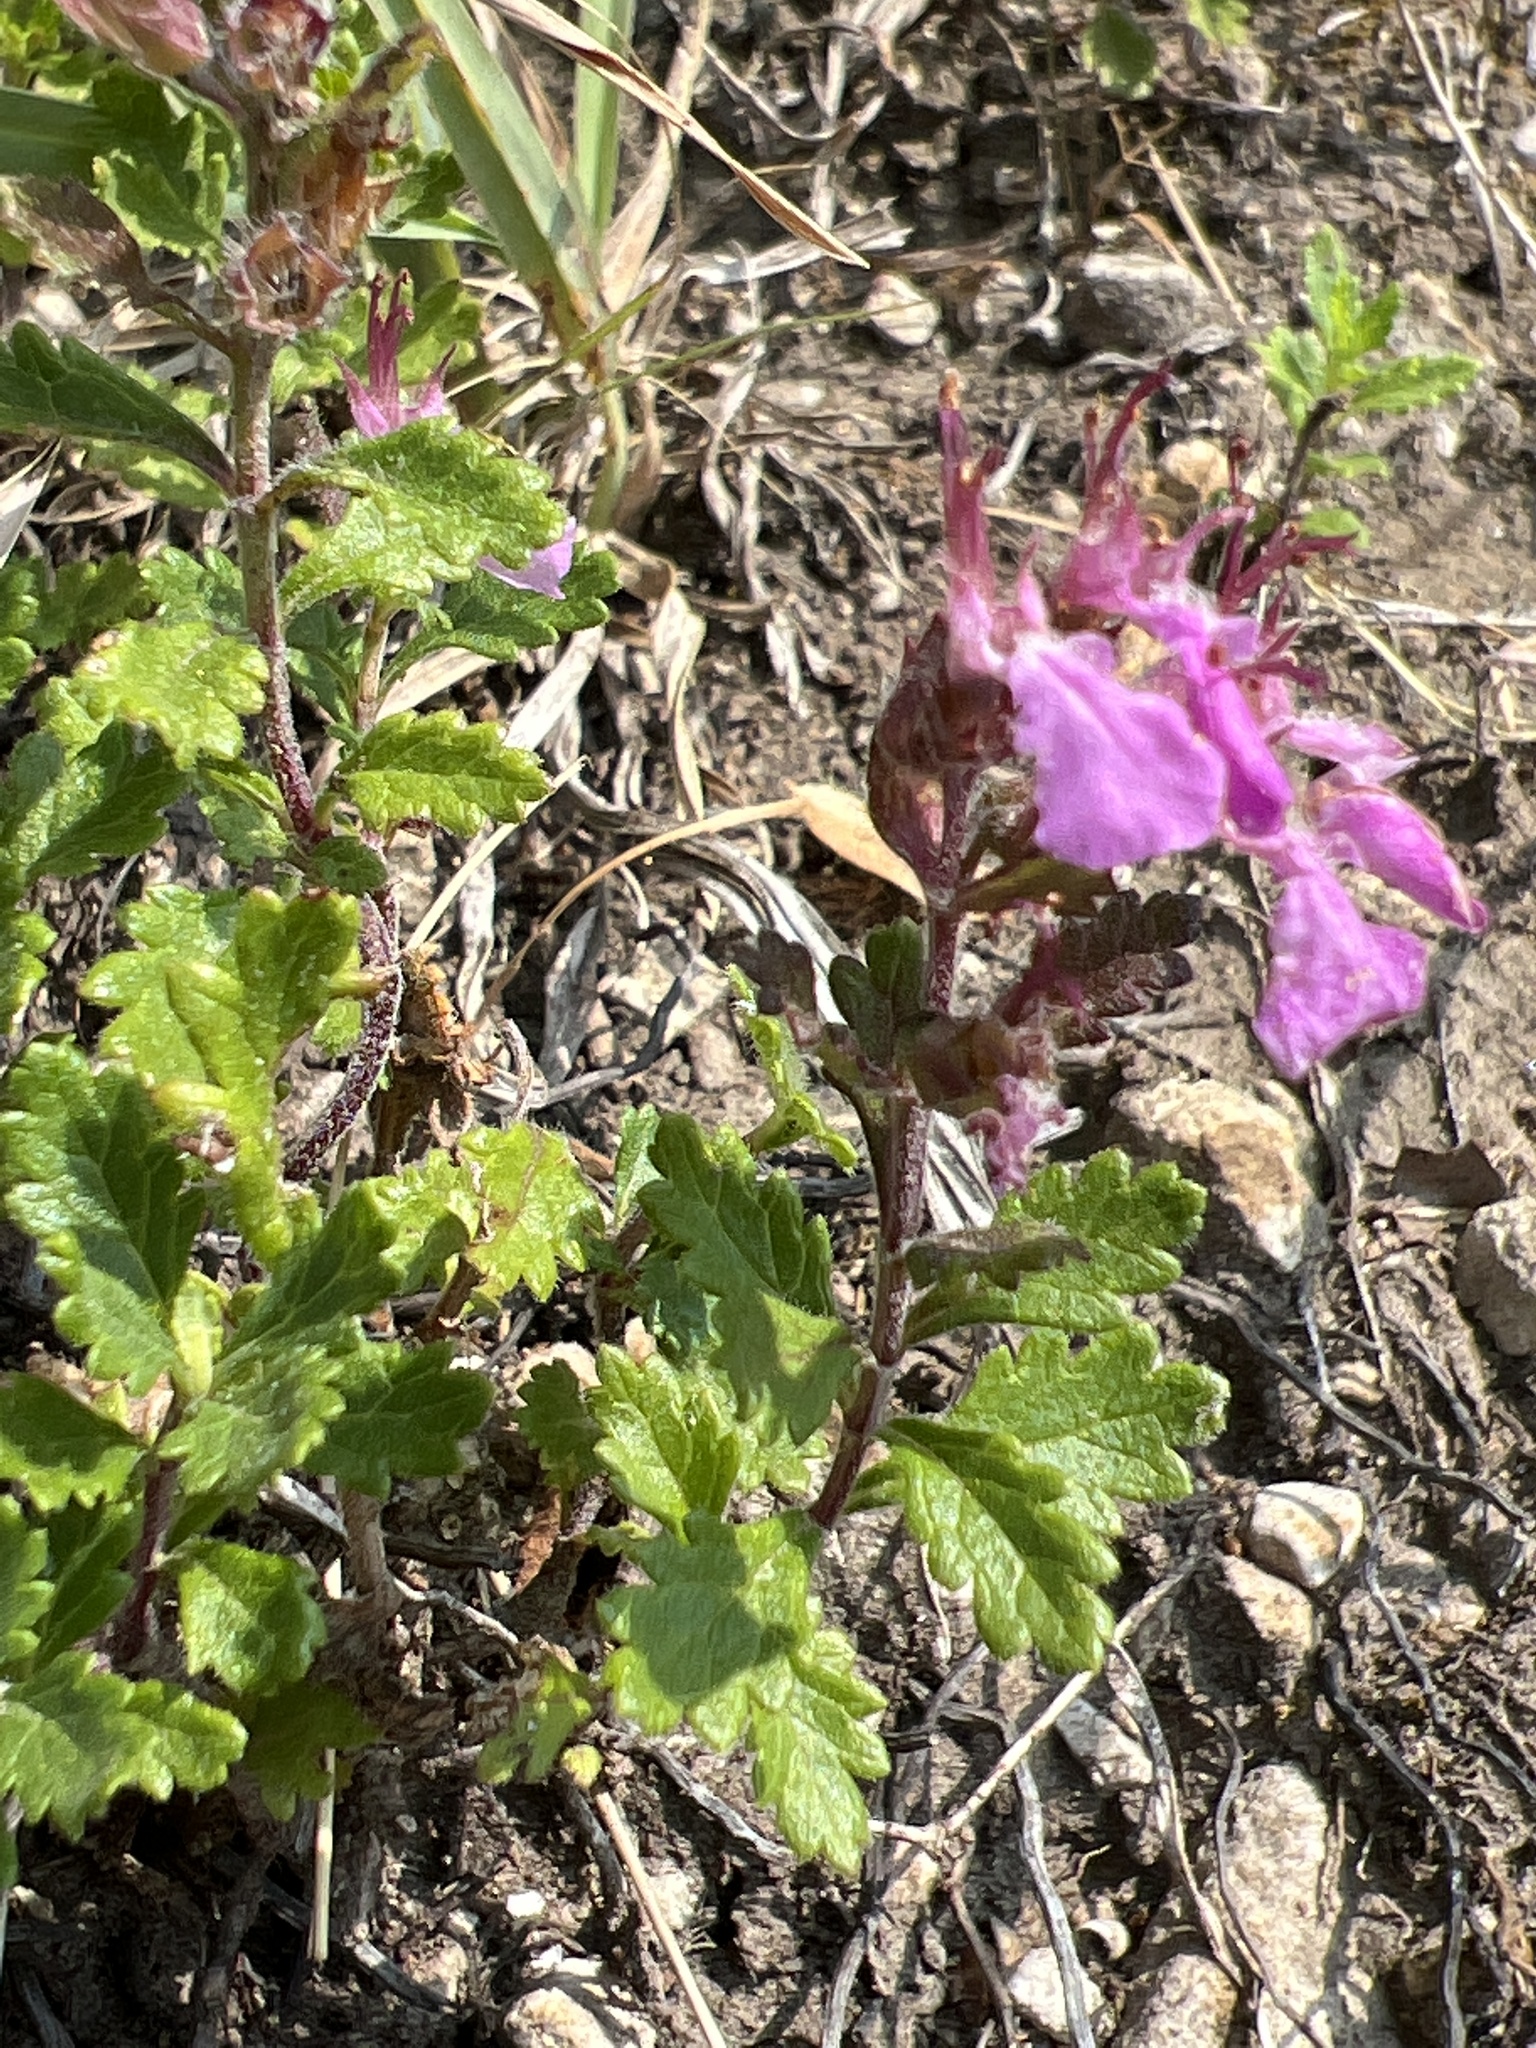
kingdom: Plantae
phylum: Tracheophyta
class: Magnoliopsida
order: Lamiales
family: Lamiaceae
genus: Teucrium
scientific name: Teucrium chamaedrys
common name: Wall germander
